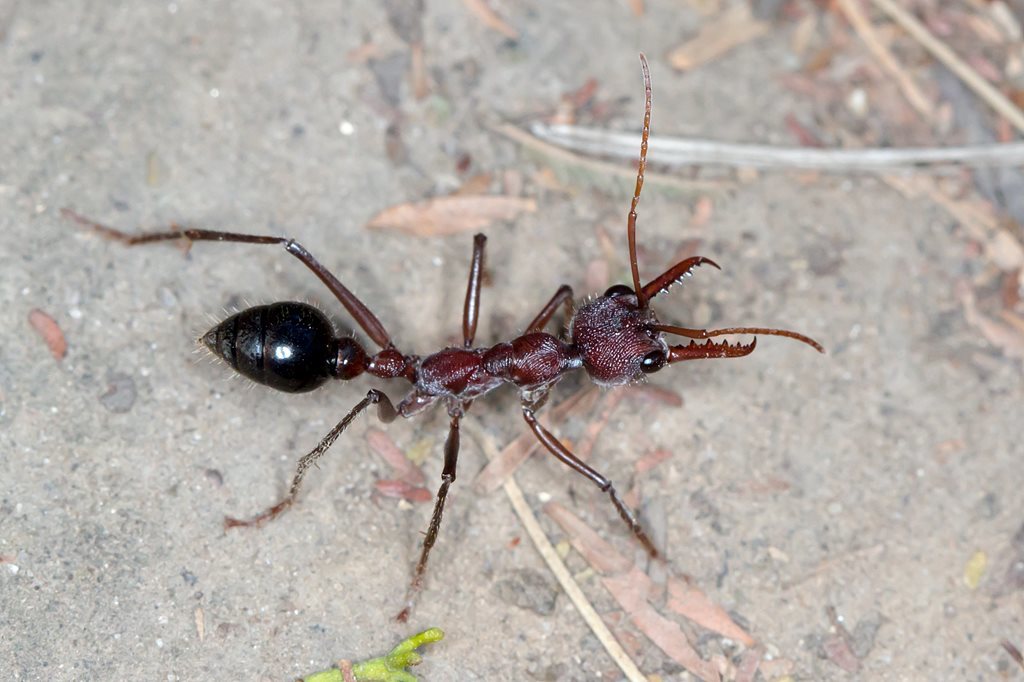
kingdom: Animalia
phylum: Arthropoda
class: Insecta
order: Hymenoptera
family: Formicidae
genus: Myrmecia
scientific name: Myrmecia simillima
